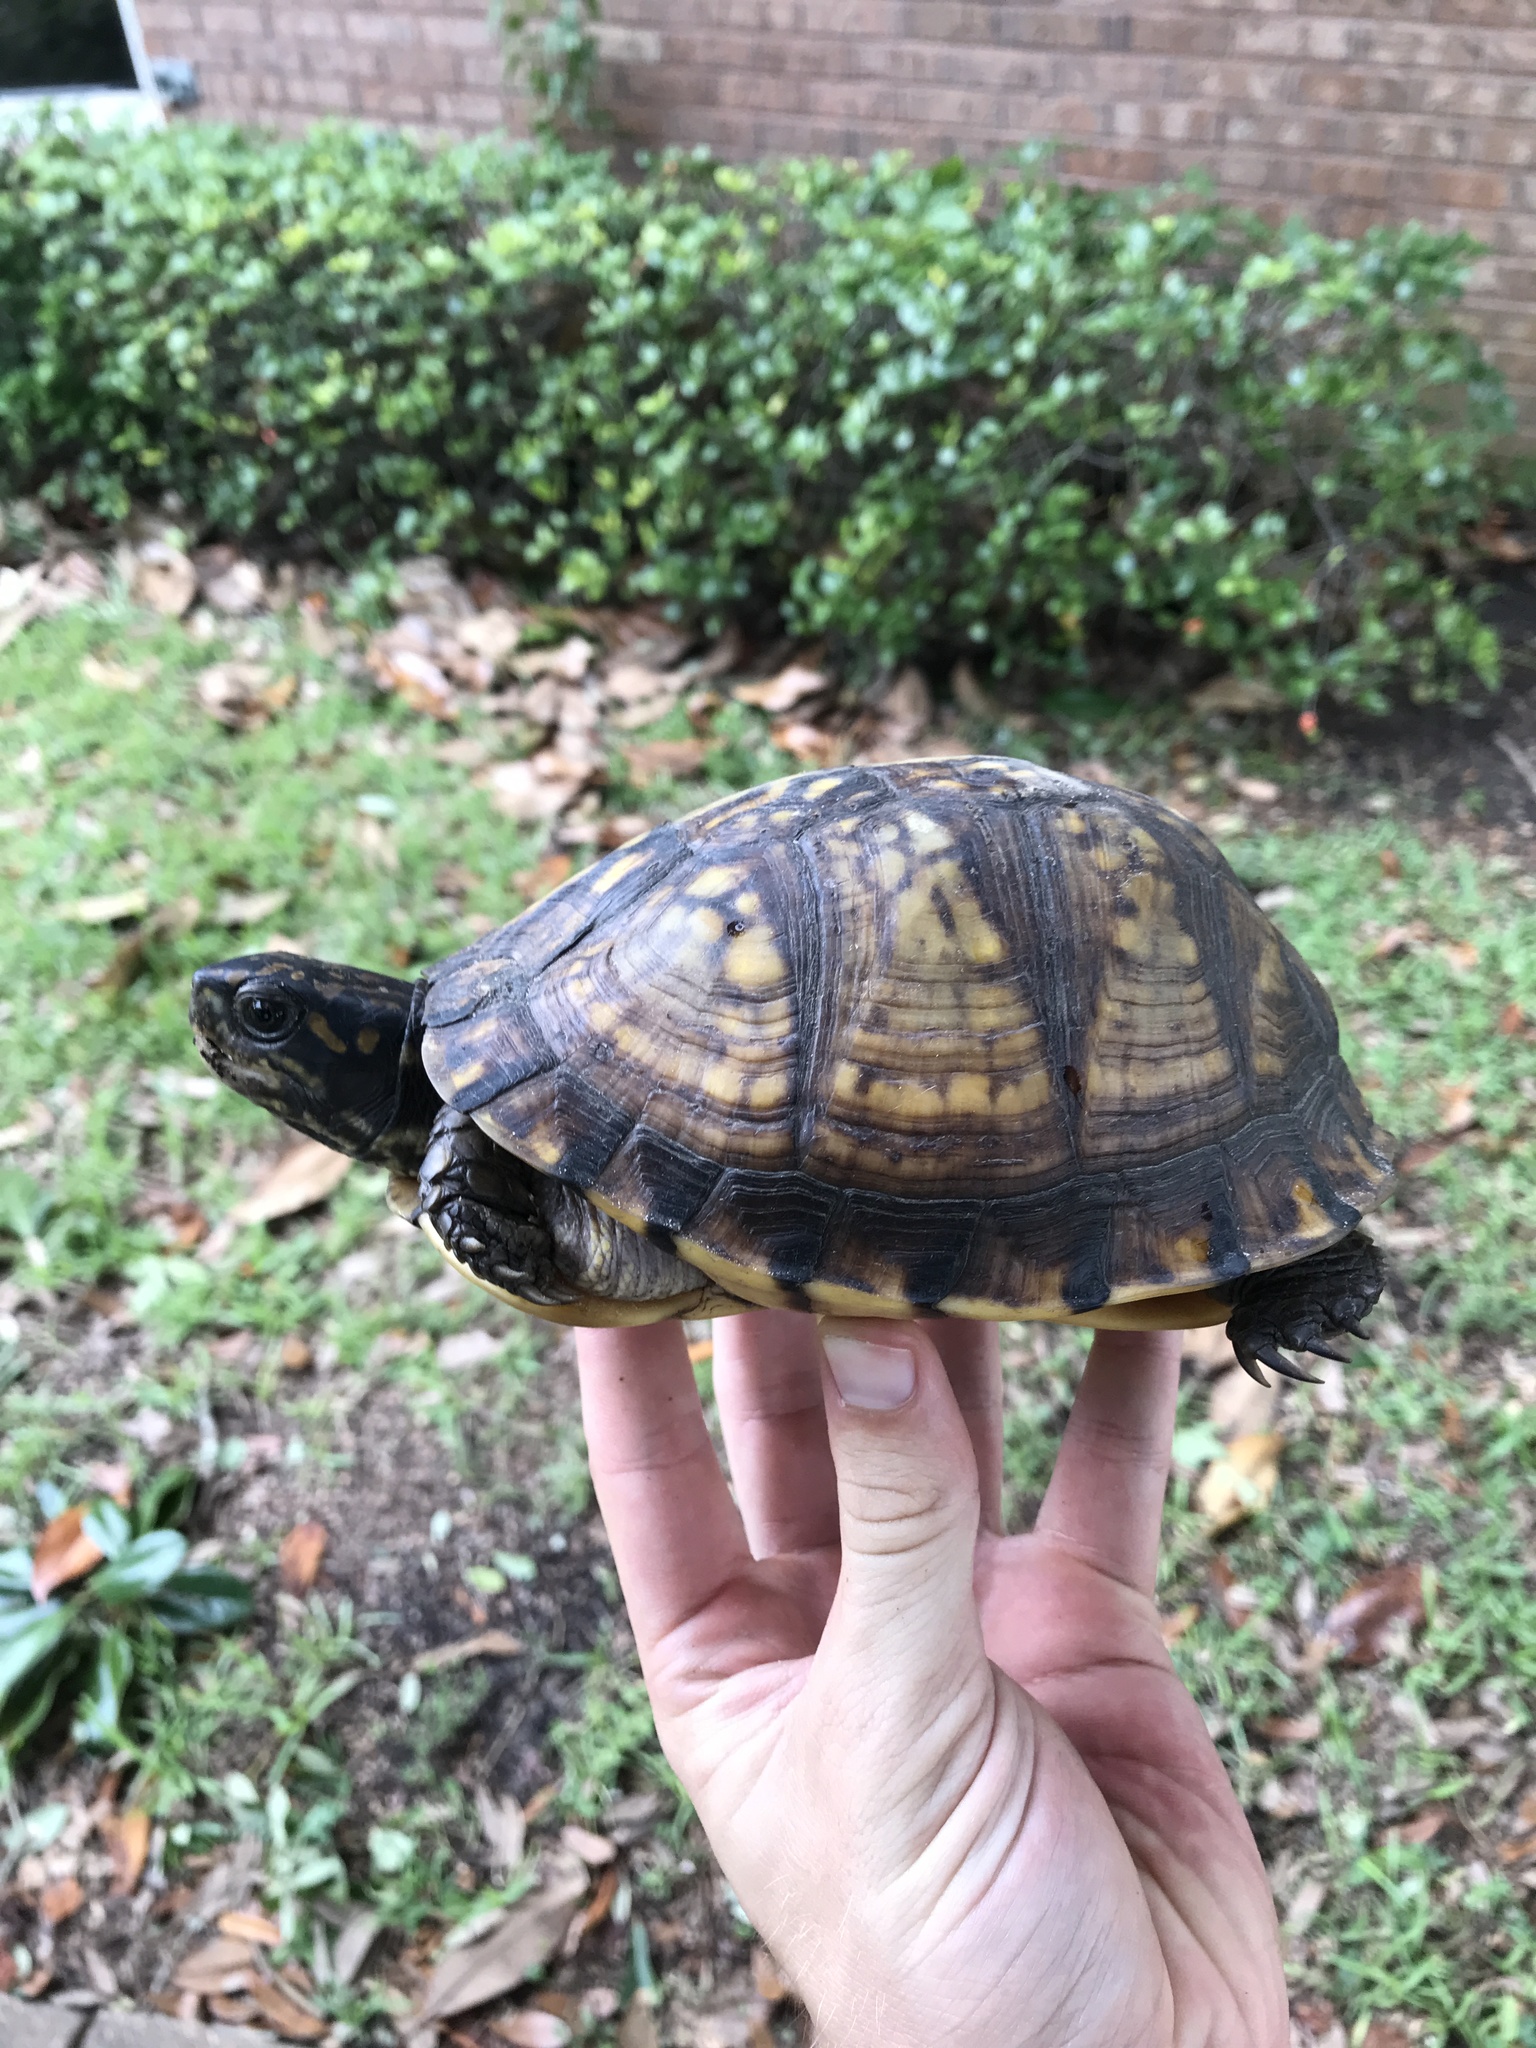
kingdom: Animalia
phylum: Chordata
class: Testudines
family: Emydidae
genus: Terrapene
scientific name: Terrapene carolina
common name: Common box turtle
